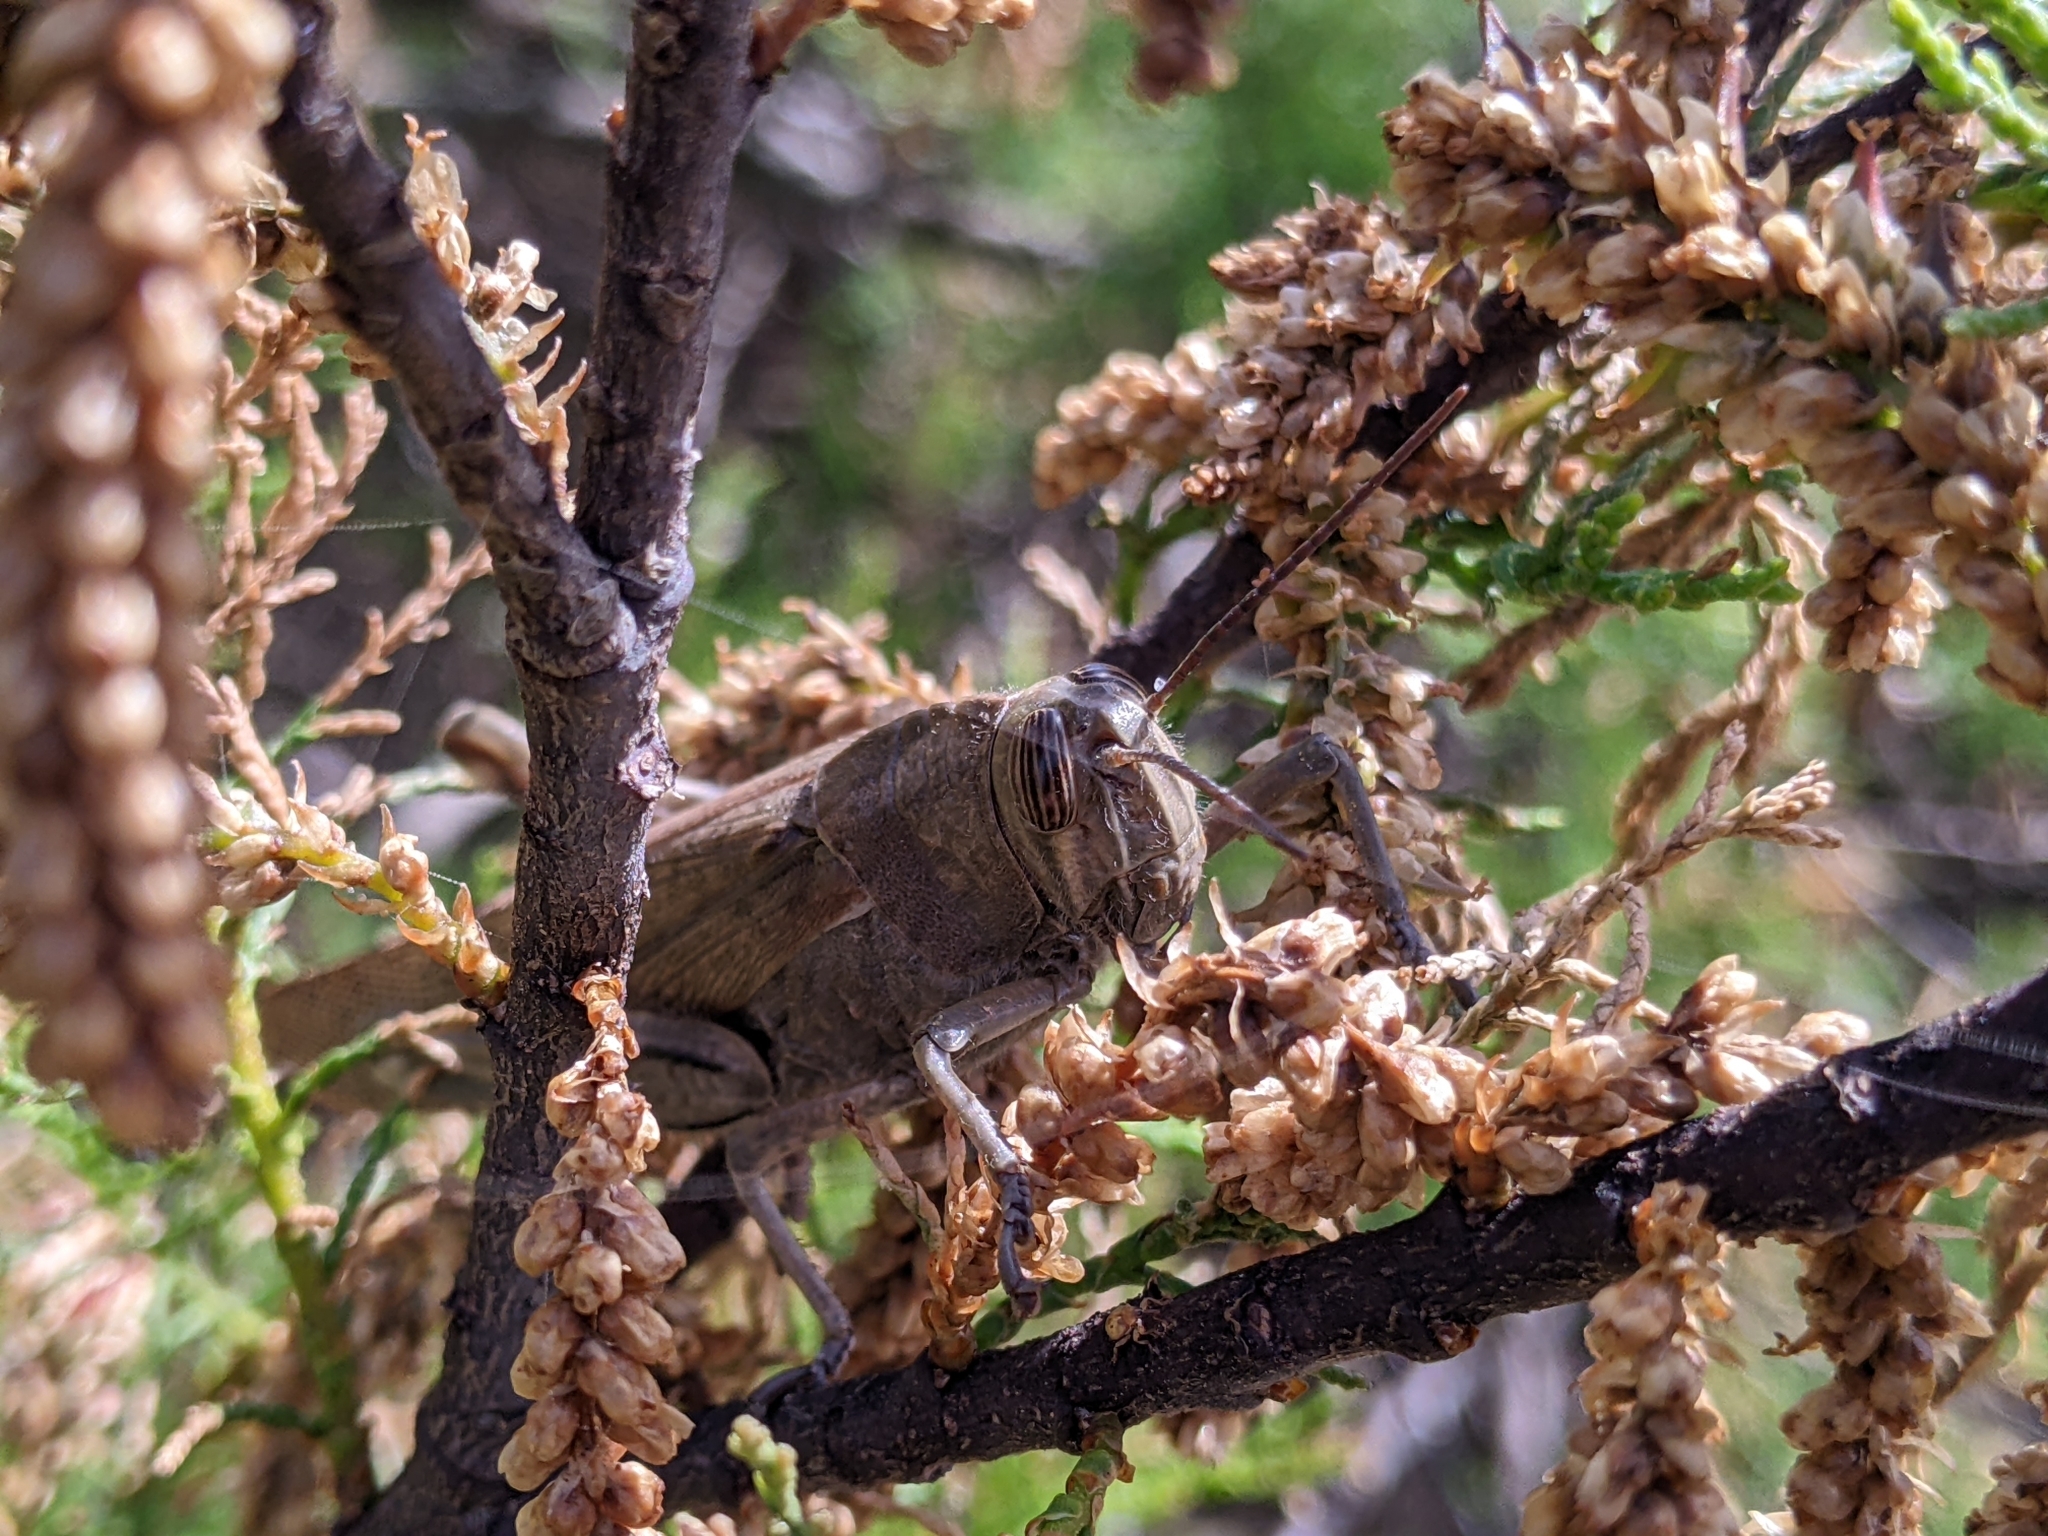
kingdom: Animalia
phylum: Arthropoda
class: Insecta
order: Orthoptera
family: Acrididae
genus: Anacridium
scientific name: Anacridium aegyptium
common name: Egyptian grasshopper
